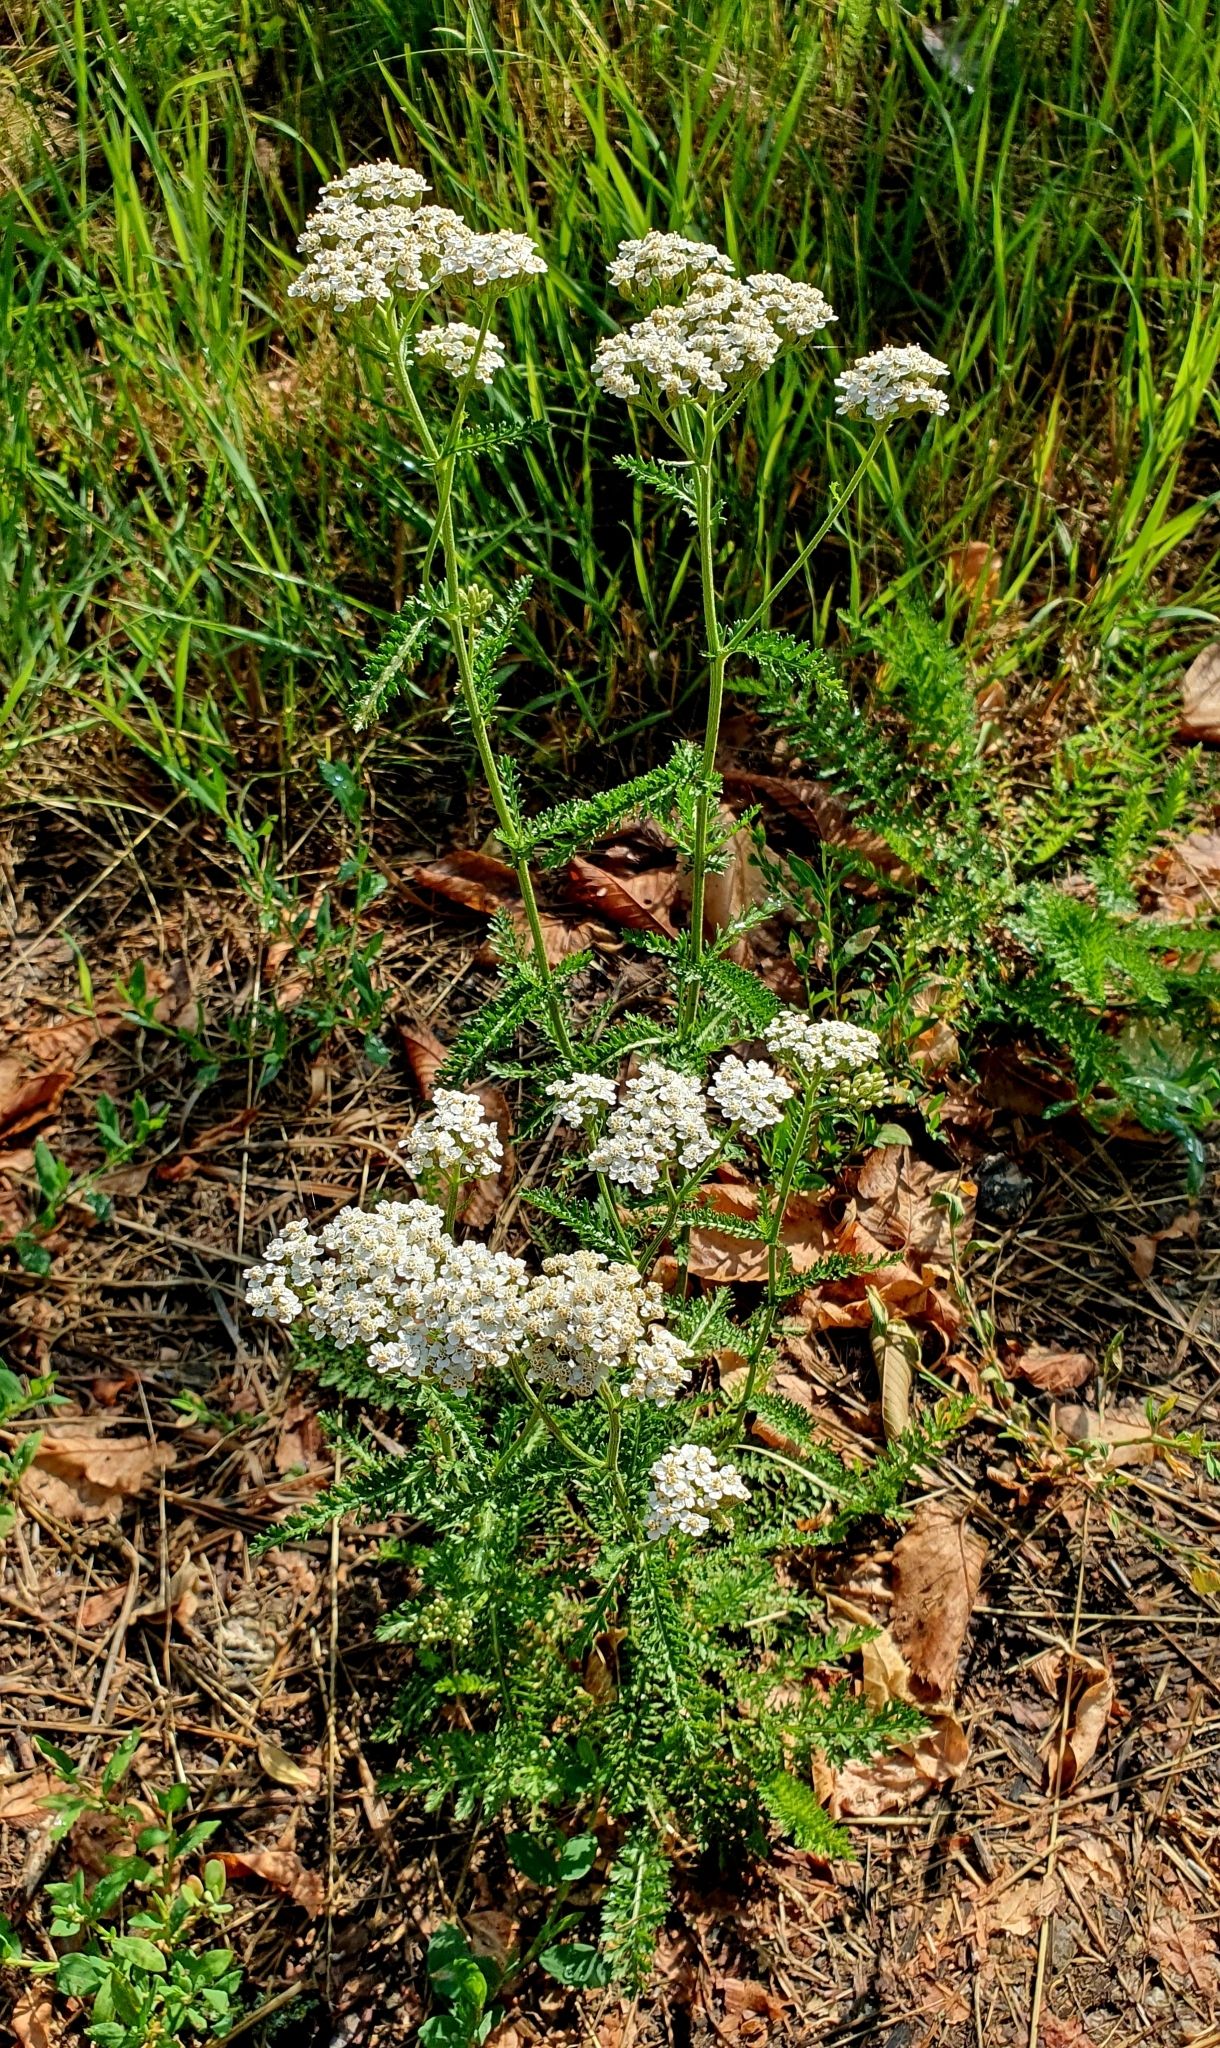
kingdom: Plantae
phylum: Tracheophyta
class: Magnoliopsida
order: Asterales
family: Asteraceae
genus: Achillea
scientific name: Achillea millefolium
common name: Yarrow
